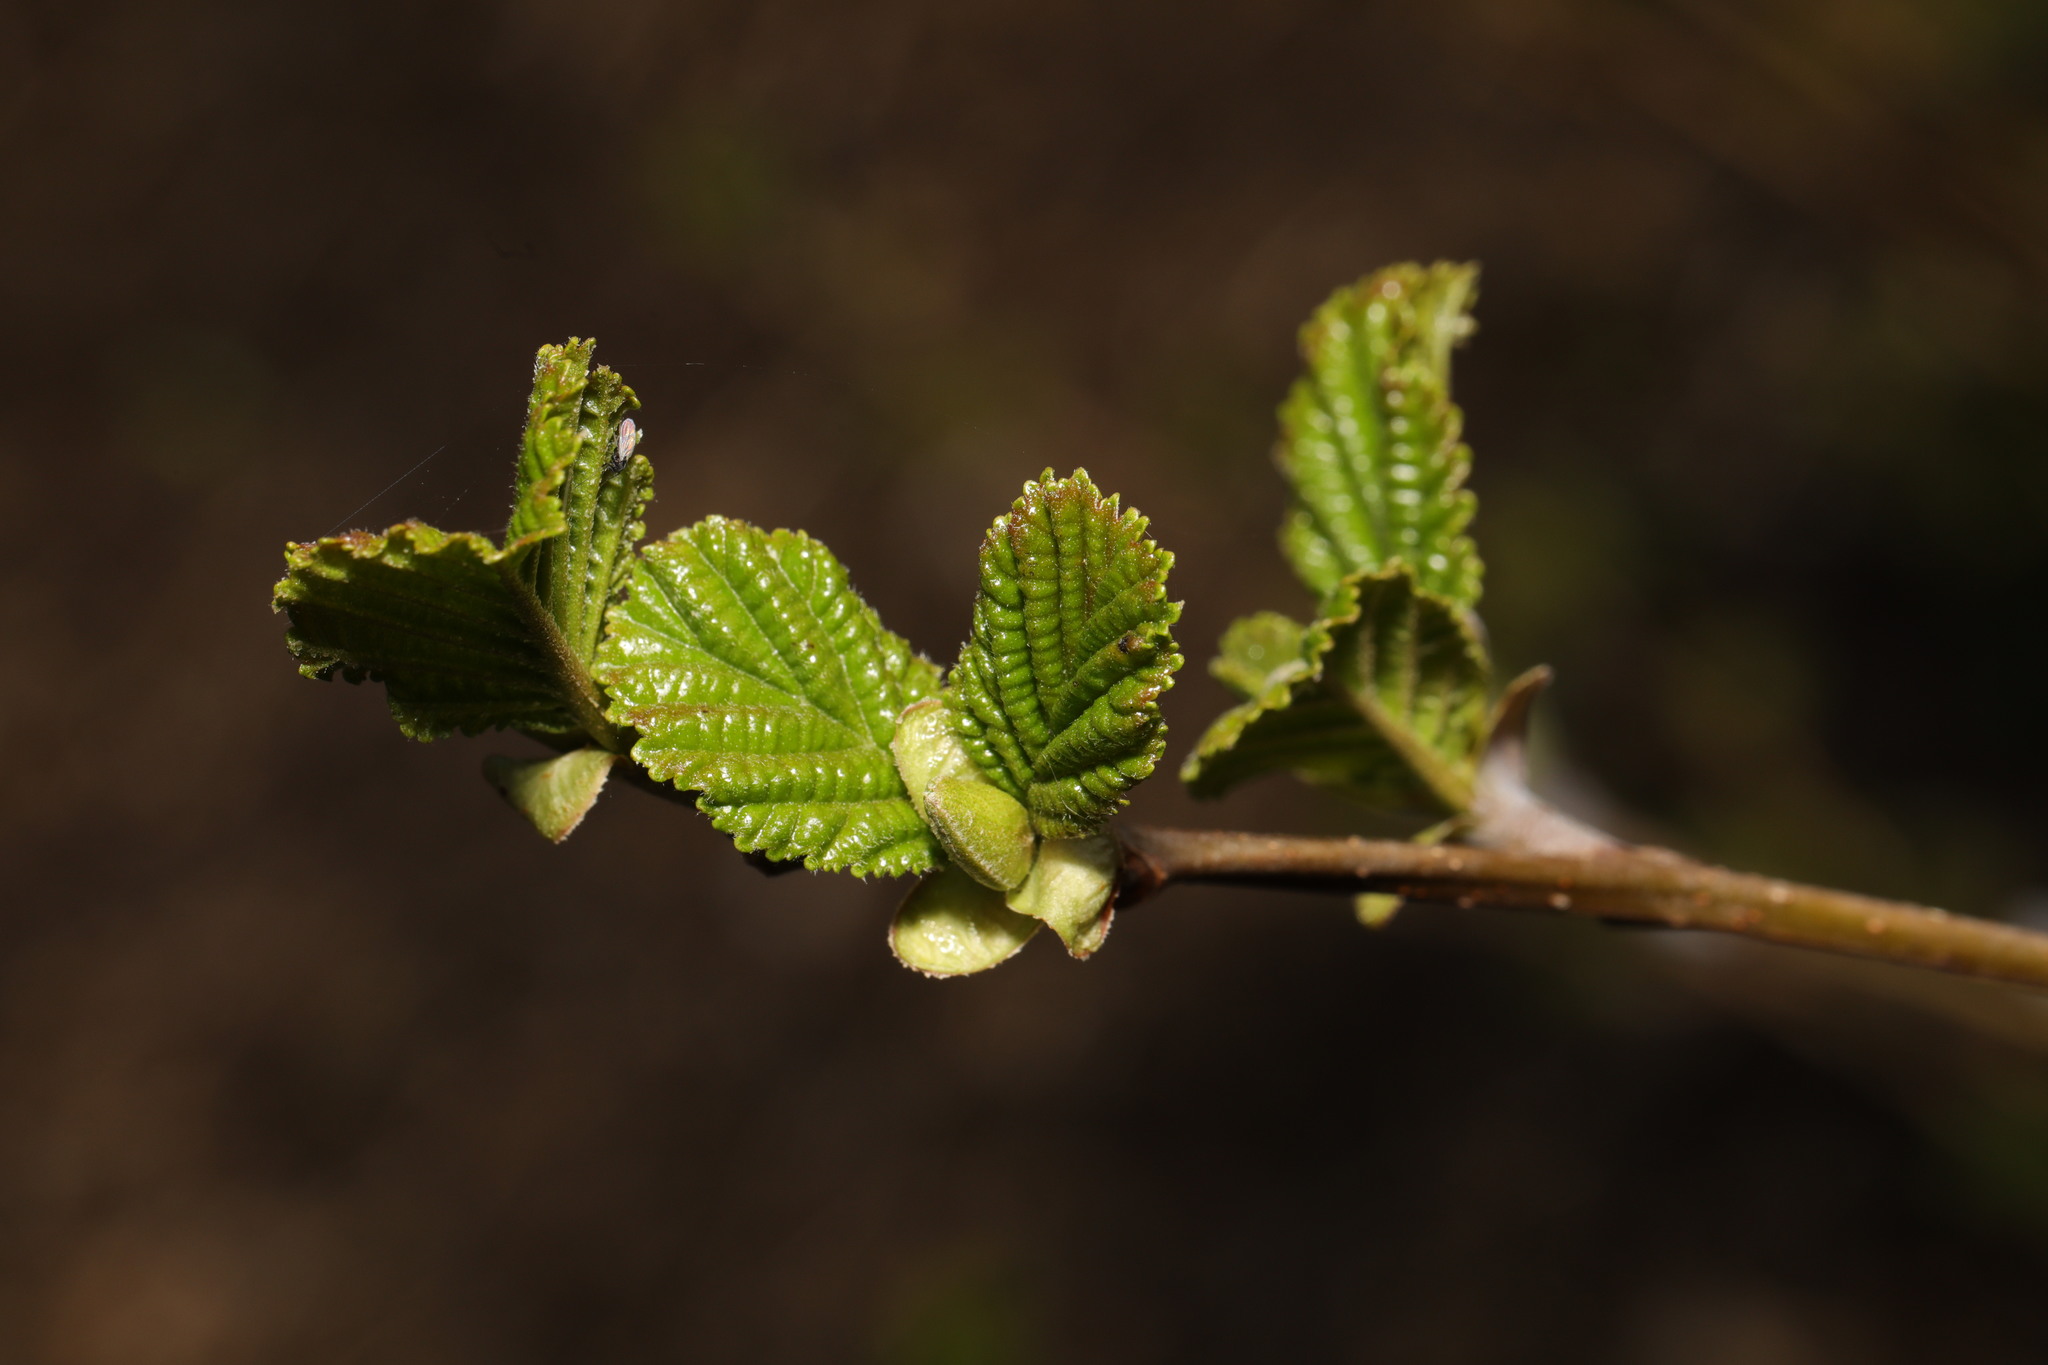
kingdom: Plantae
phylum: Tracheophyta
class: Magnoliopsida
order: Fagales
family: Betulaceae
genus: Alnus
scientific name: Alnus glutinosa
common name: Black alder
